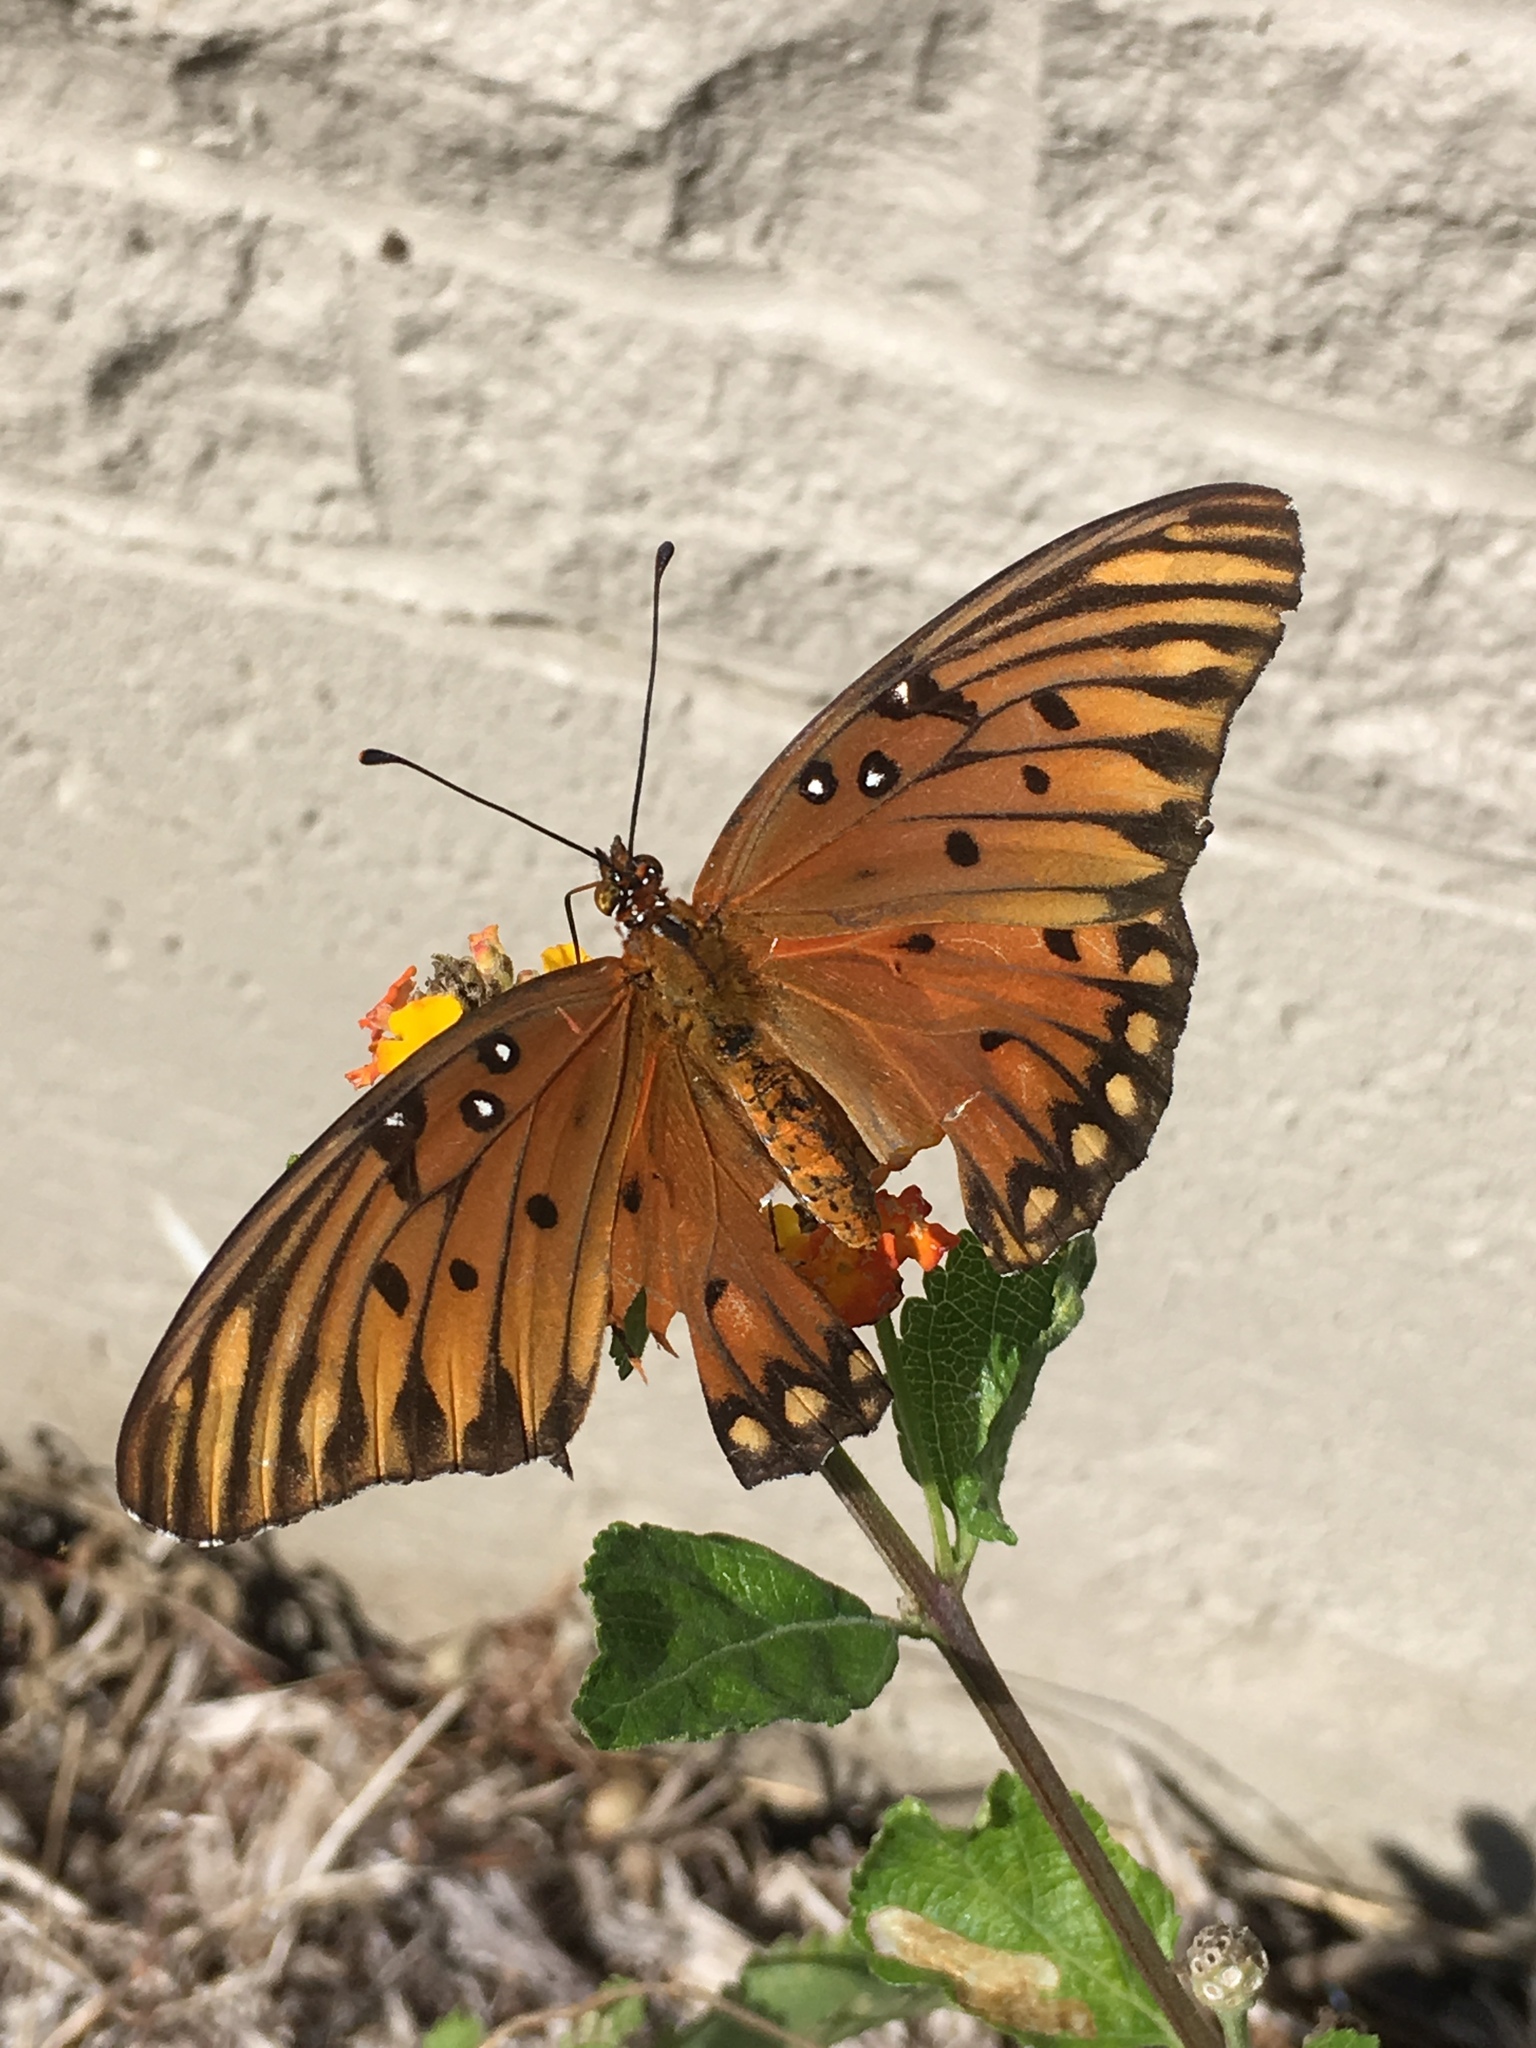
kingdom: Animalia
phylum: Arthropoda
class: Insecta
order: Lepidoptera
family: Nymphalidae
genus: Dione
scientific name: Dione vanillae
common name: Gulf fritillary
